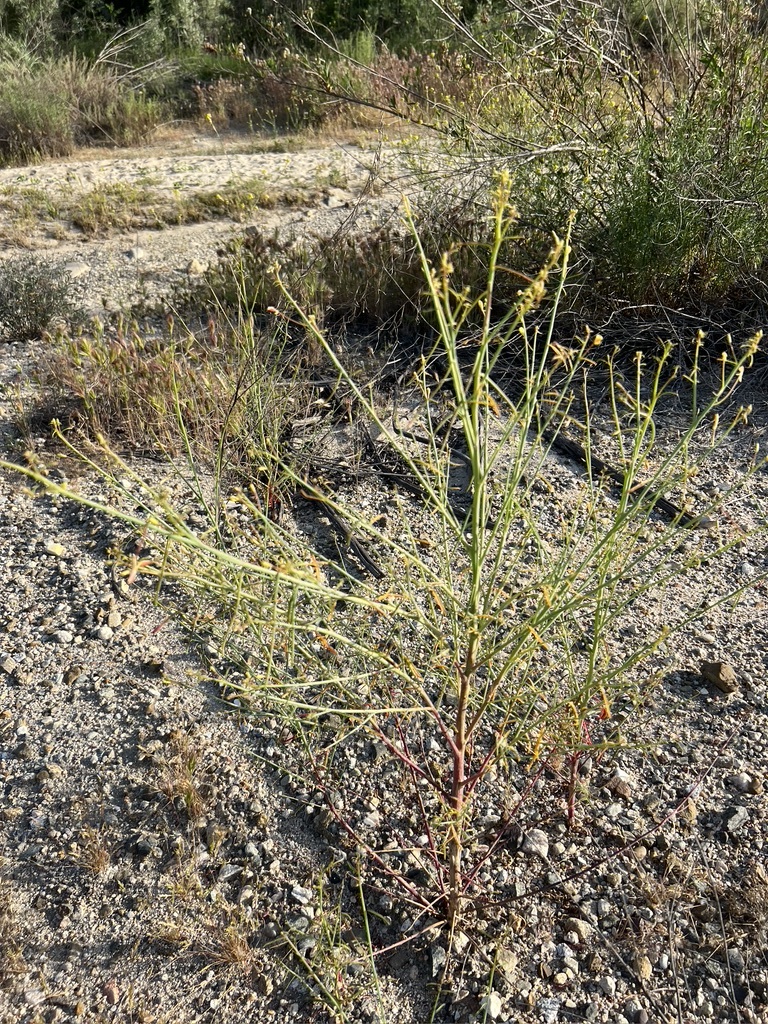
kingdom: Plantae
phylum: Tracheophyta
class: Magnoliopsida
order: Myrtales
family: Onagraceae
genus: Eulobus
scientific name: Eulobus californicus
